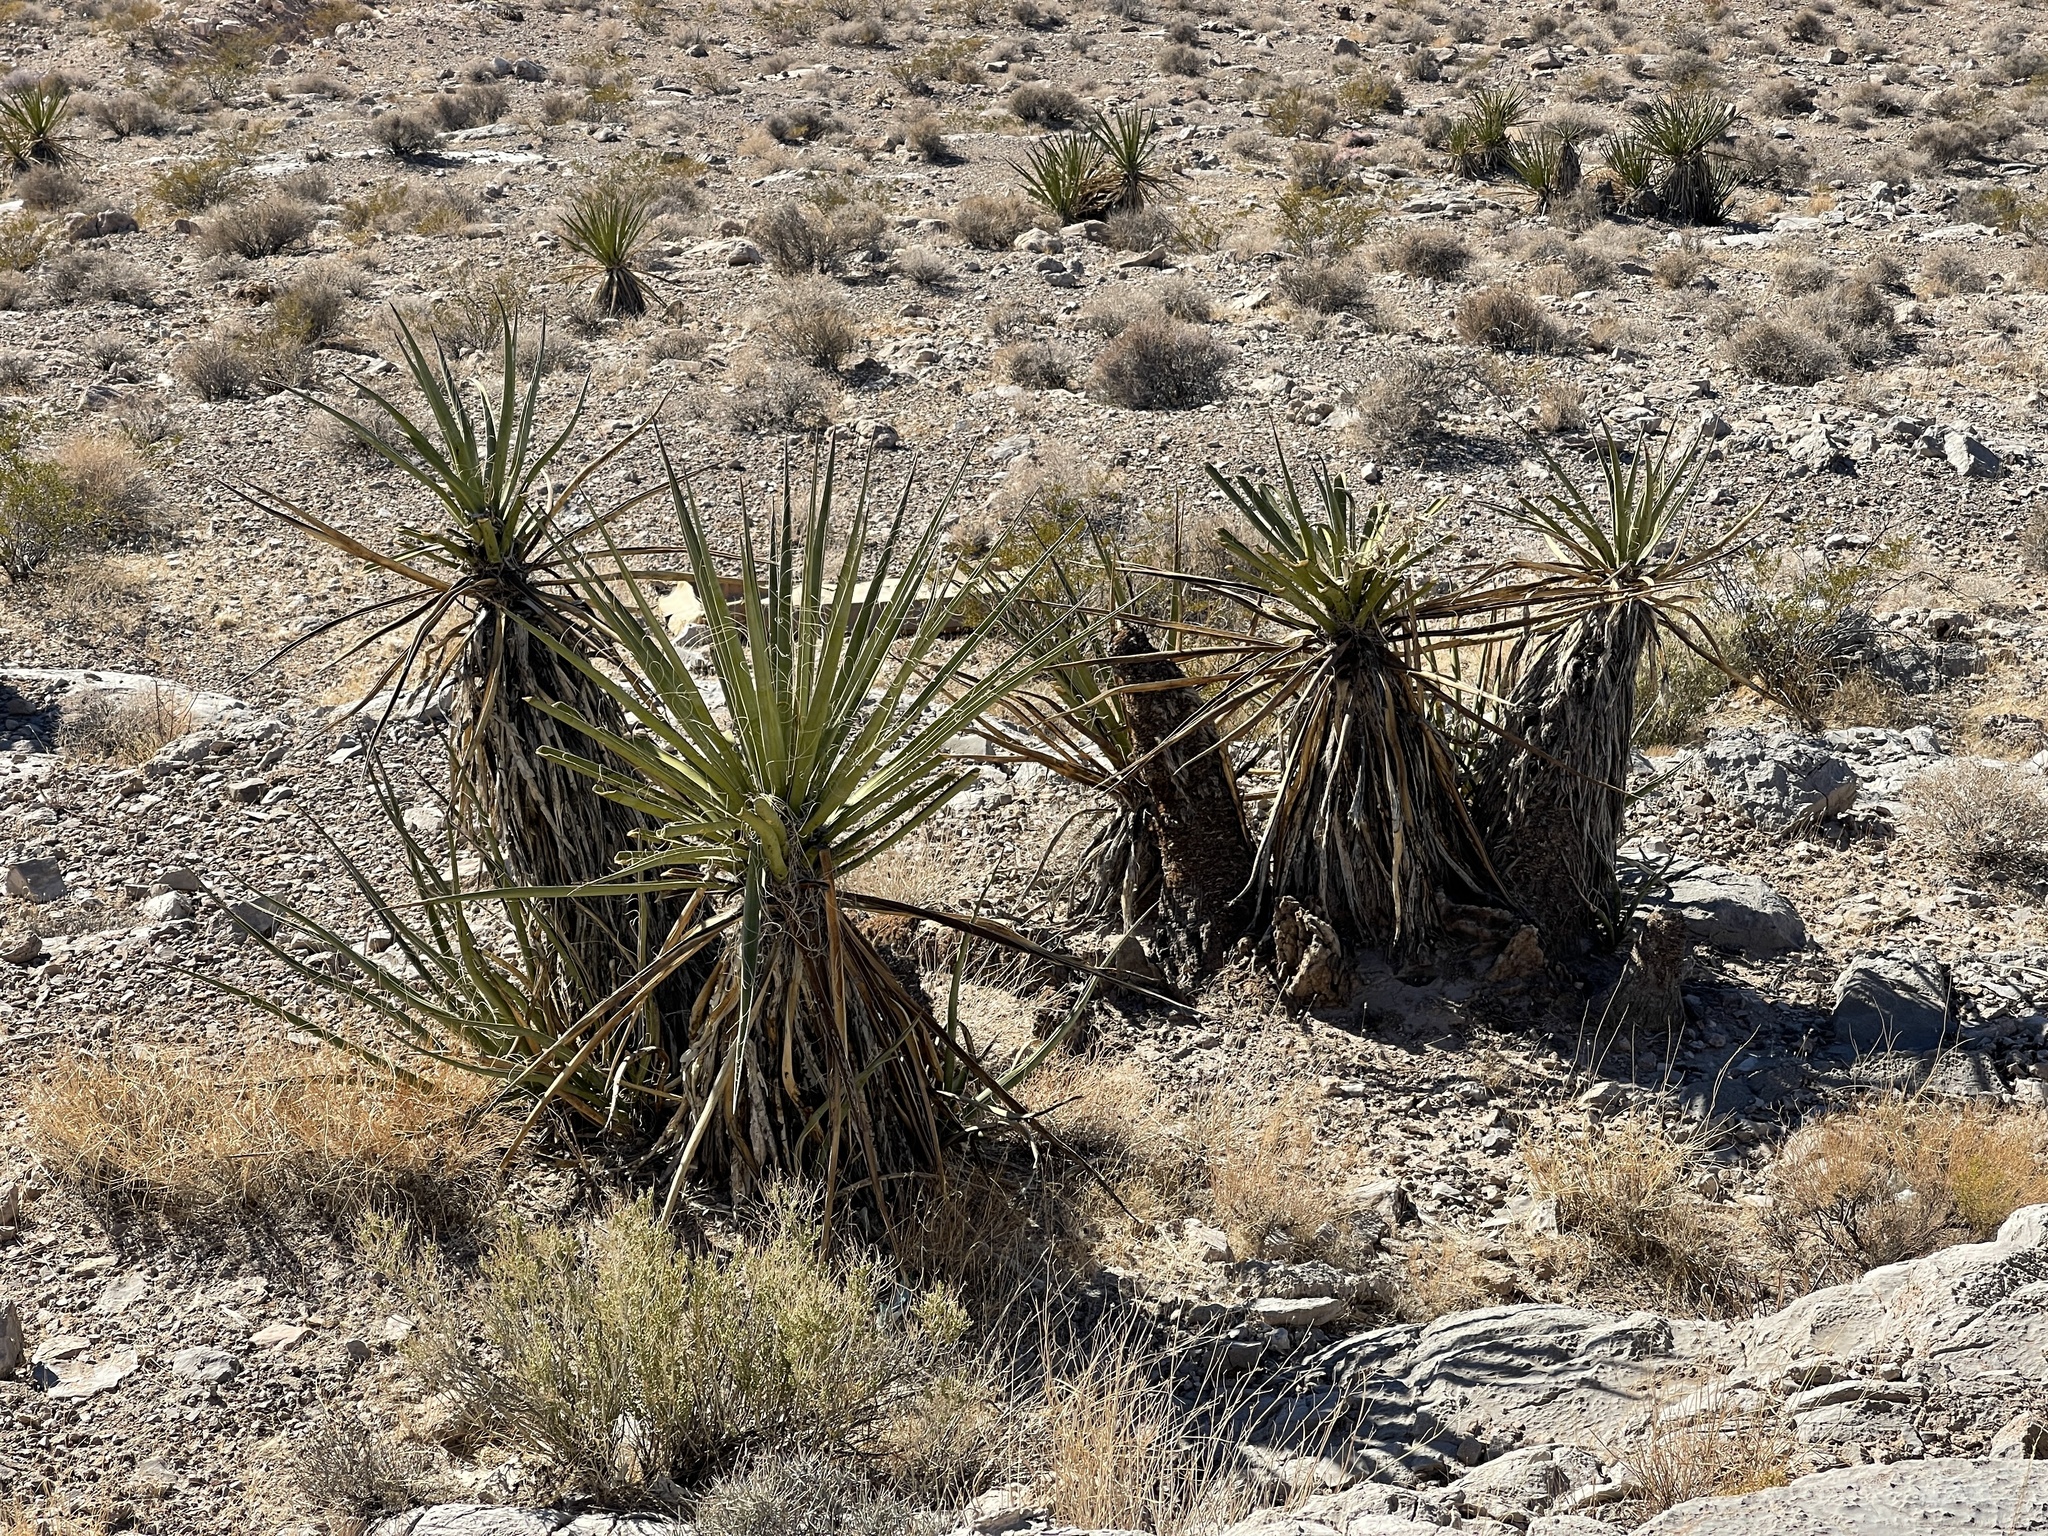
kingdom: Plantae
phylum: Tracheophyta
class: Liliopsida
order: Asparagales
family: Asparagaceae
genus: Yucca
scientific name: Yucca schidigera
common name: Mojave yucca
